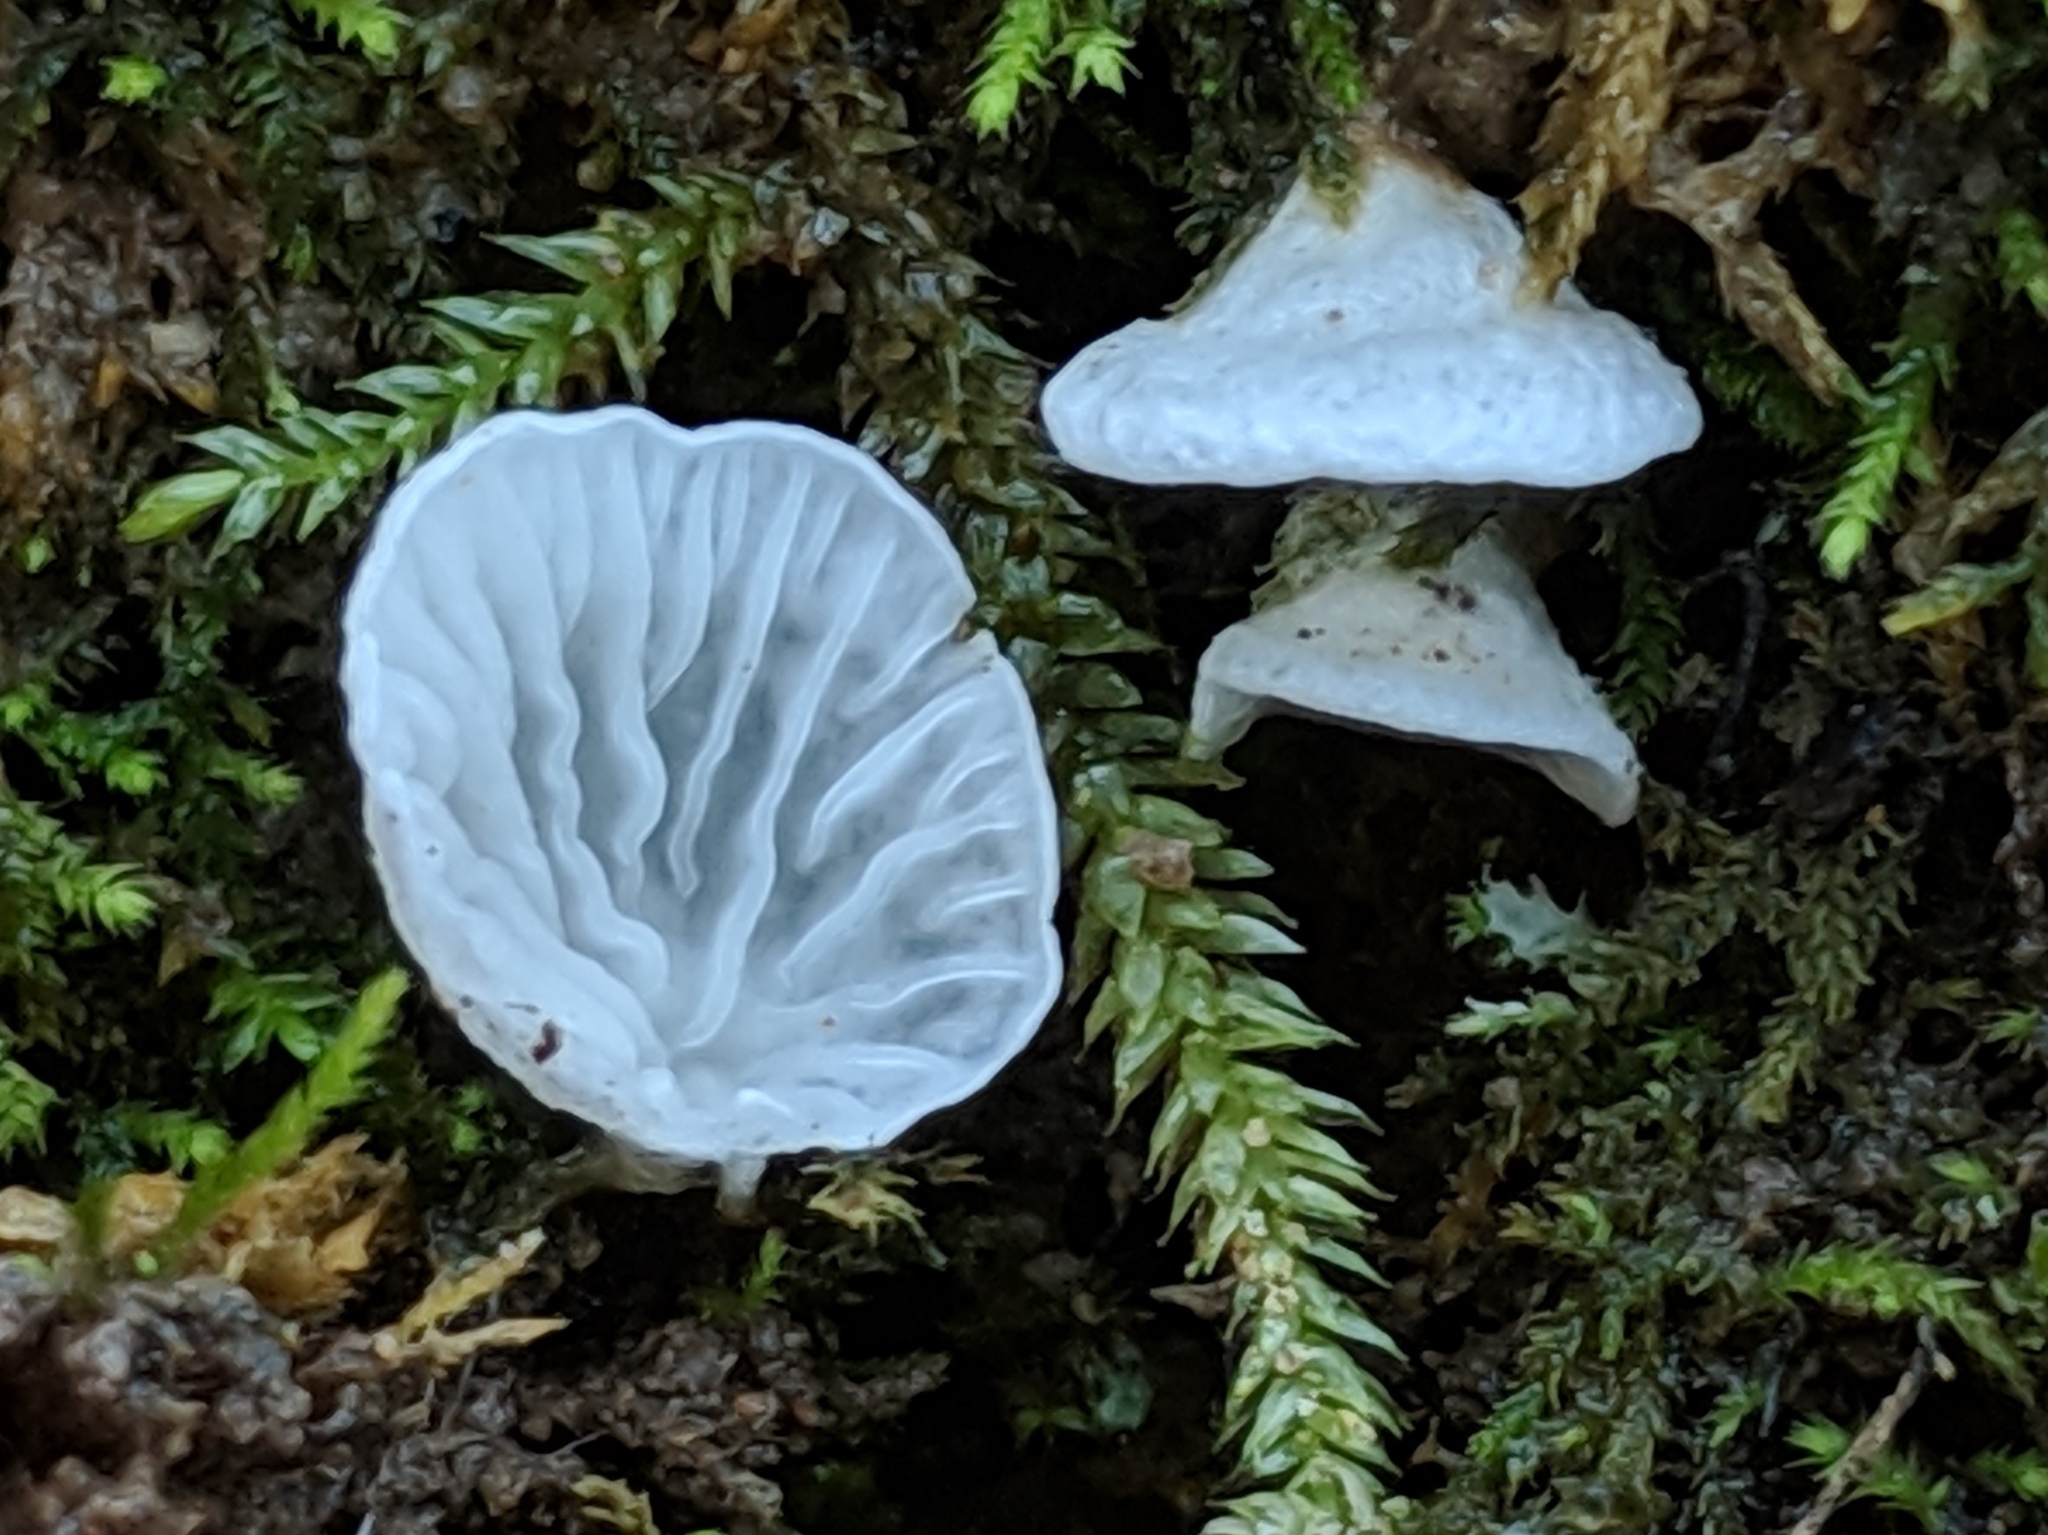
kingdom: Fungi
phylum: Basidiomycota
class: Agaricomycetes
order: Agaricales
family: Tricholomataceae
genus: Rimbachia
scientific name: Rimbachia bryophila
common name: Veined mossear
